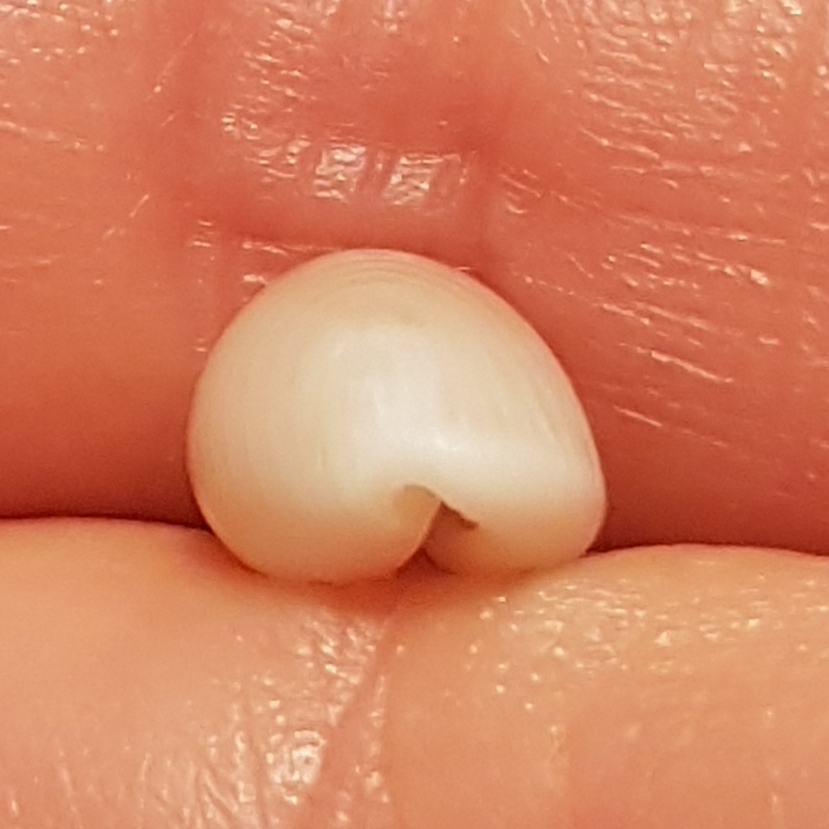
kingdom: Animalia
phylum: Mollusca
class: Gastropoda
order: Littorinimorpha
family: Triviidae
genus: Trivia
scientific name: Trivia arctica
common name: Arctic cowrie
